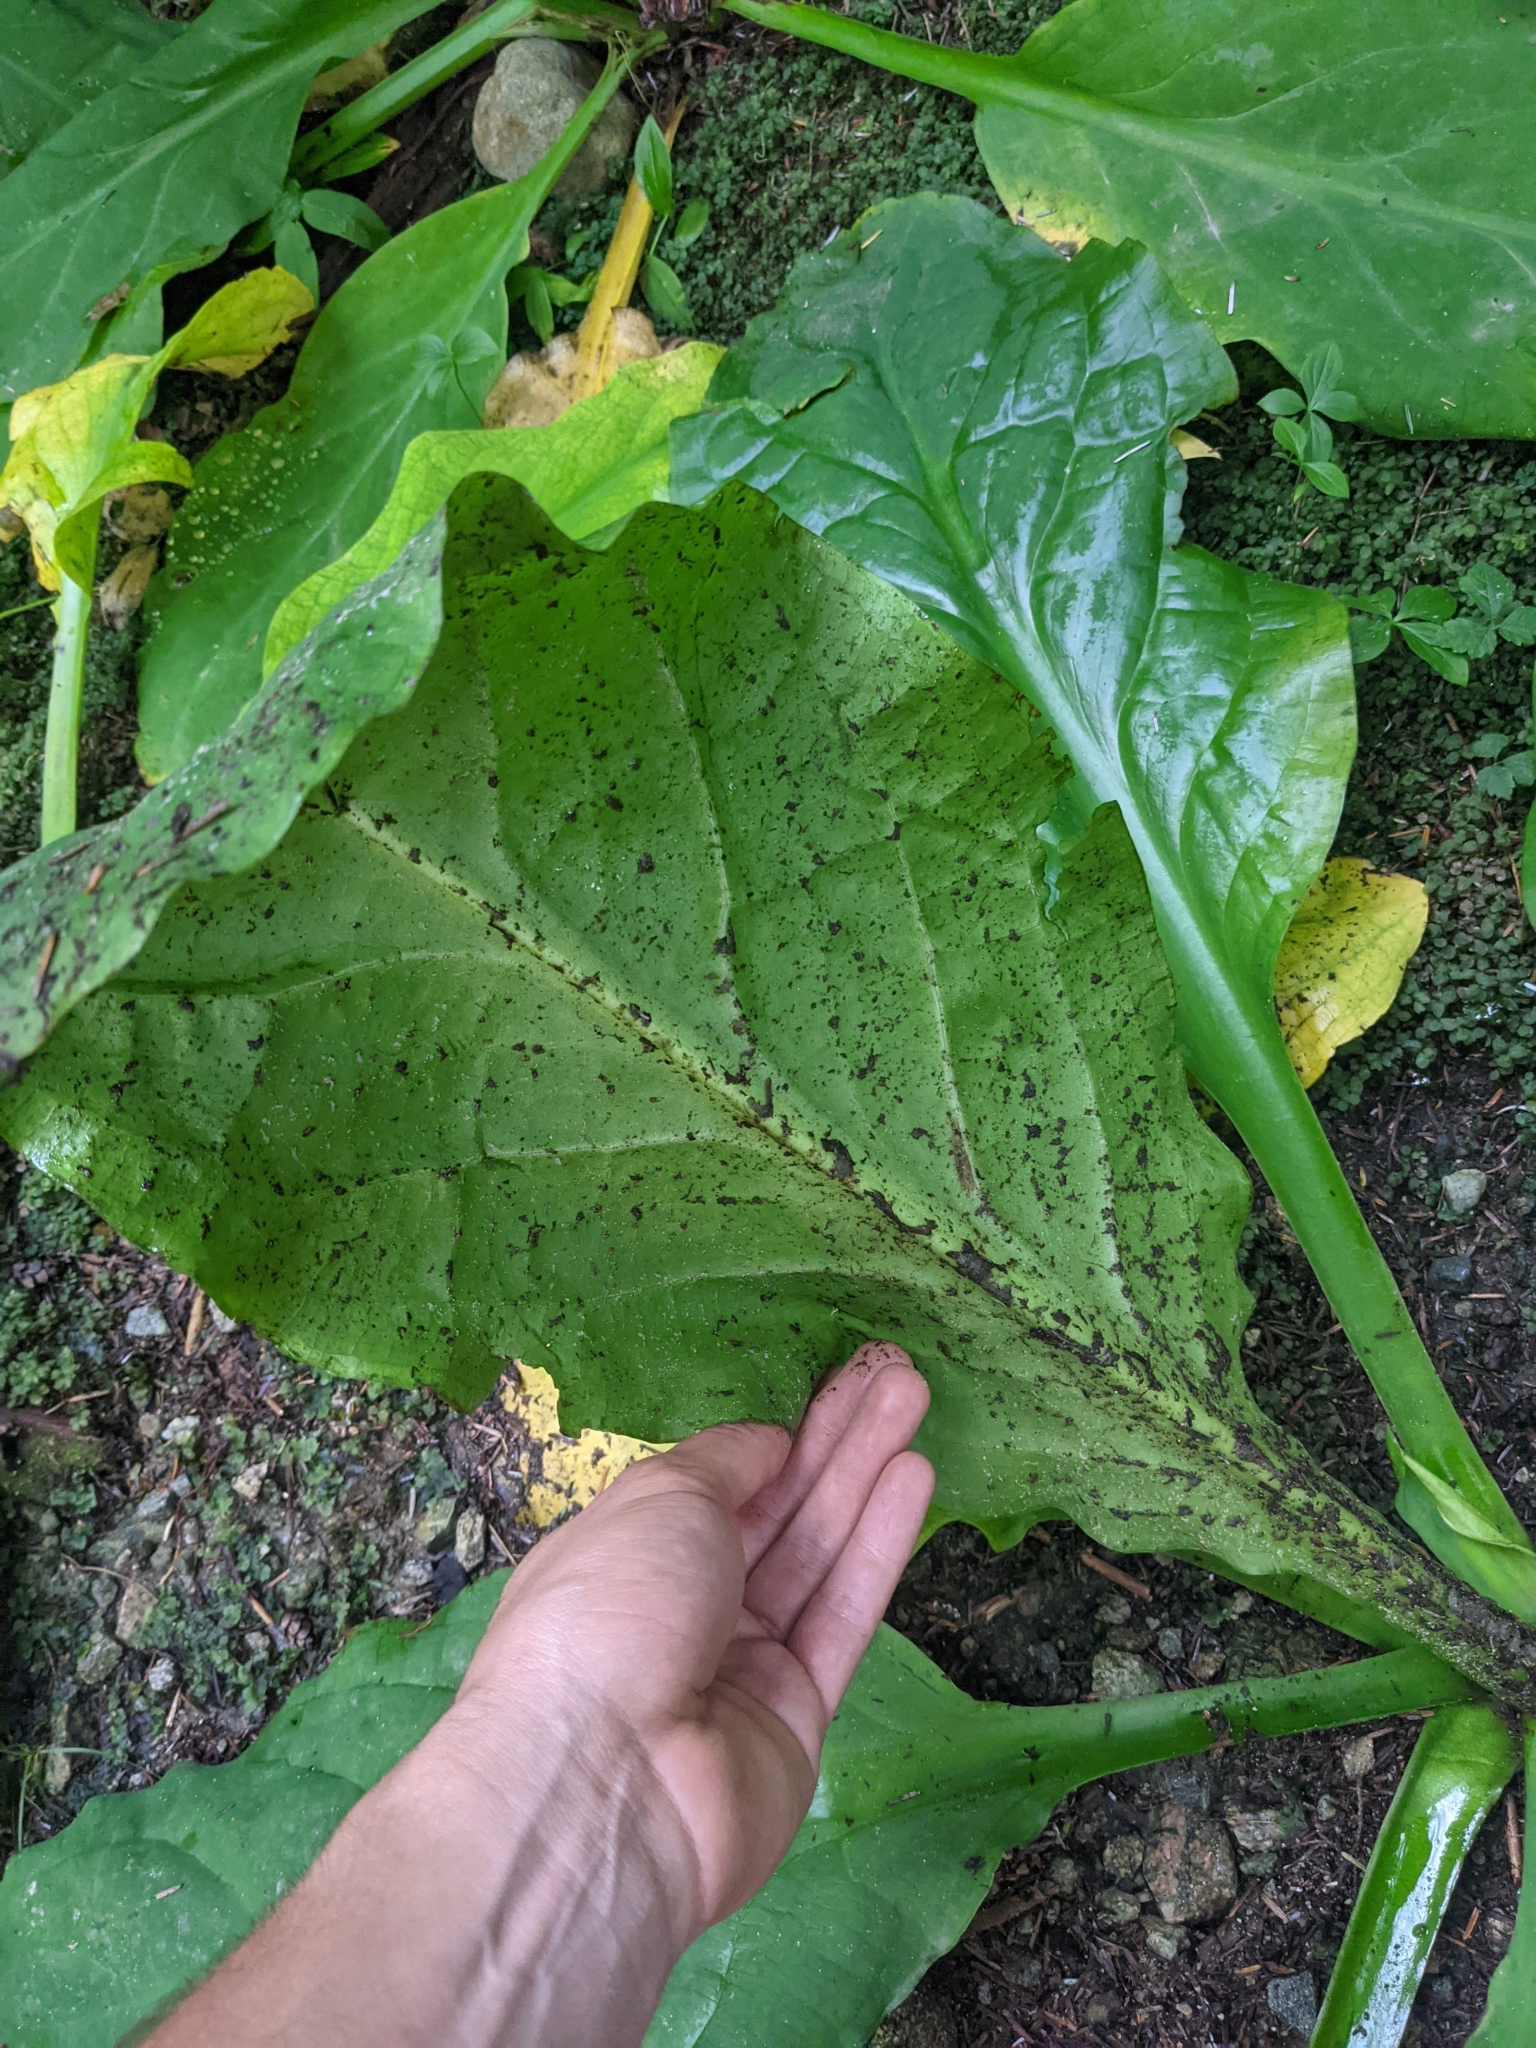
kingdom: Plantae
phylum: Tracheophyta
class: Liliopsida
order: Alismatales
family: Araceae
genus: Lysichiton
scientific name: Lysichiton americanus
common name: American skunk cabbage
